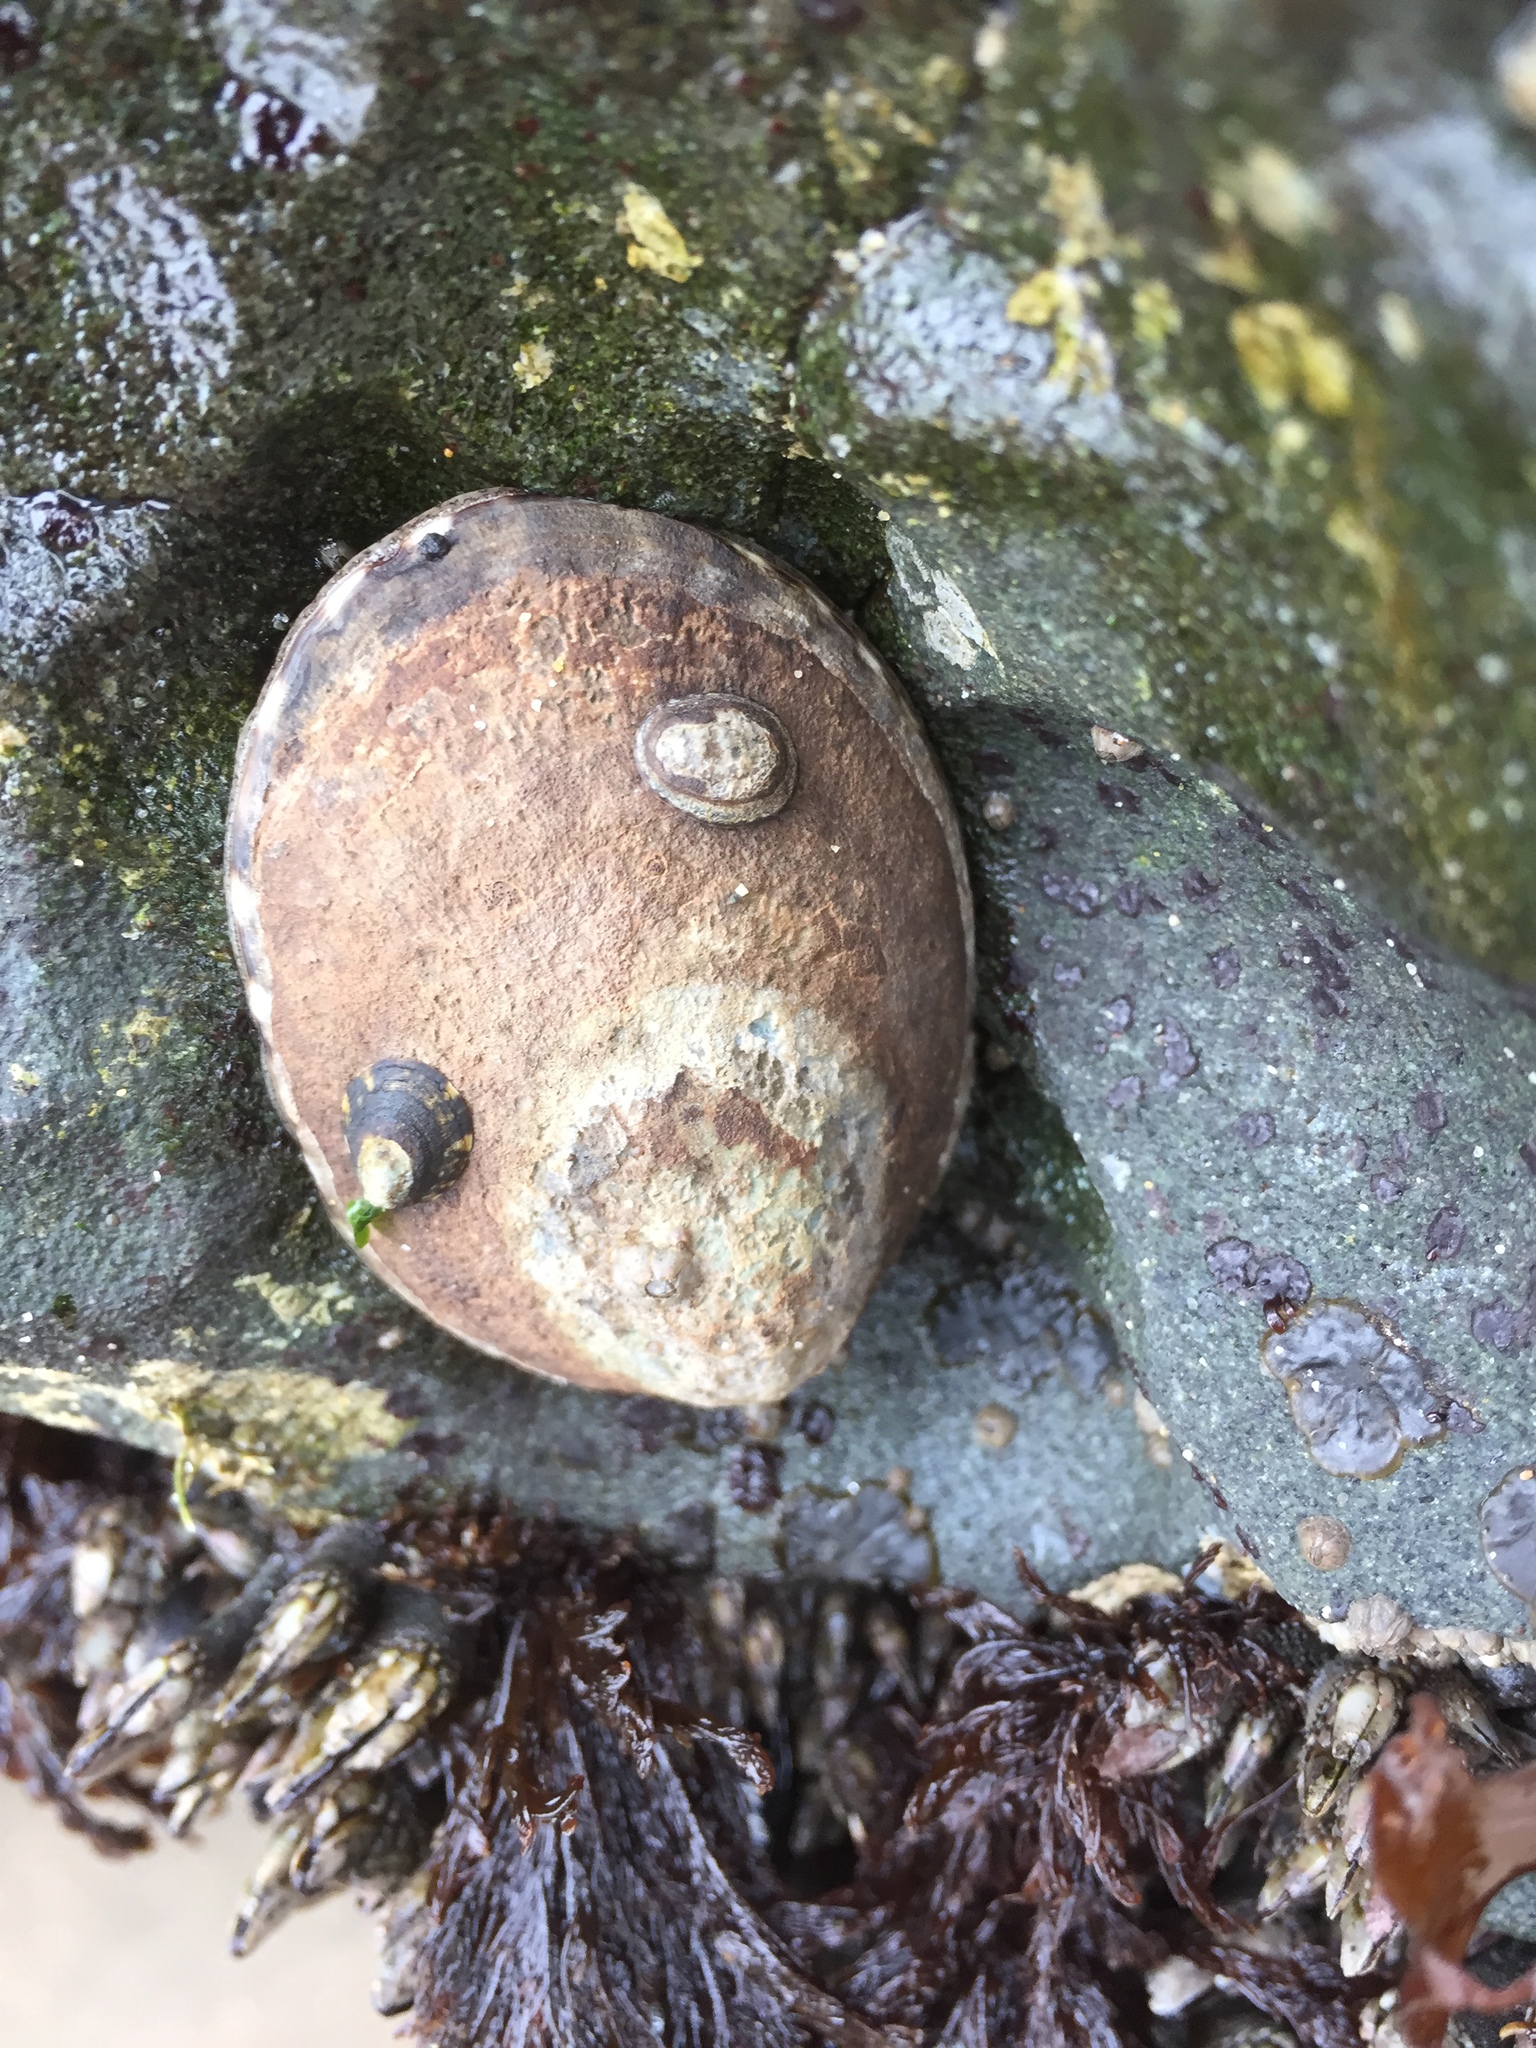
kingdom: Animalia
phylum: Mollusca
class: Gastropoda
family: Lottiidae
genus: Lottia
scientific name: Lottia gigantea
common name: Owl limpet
